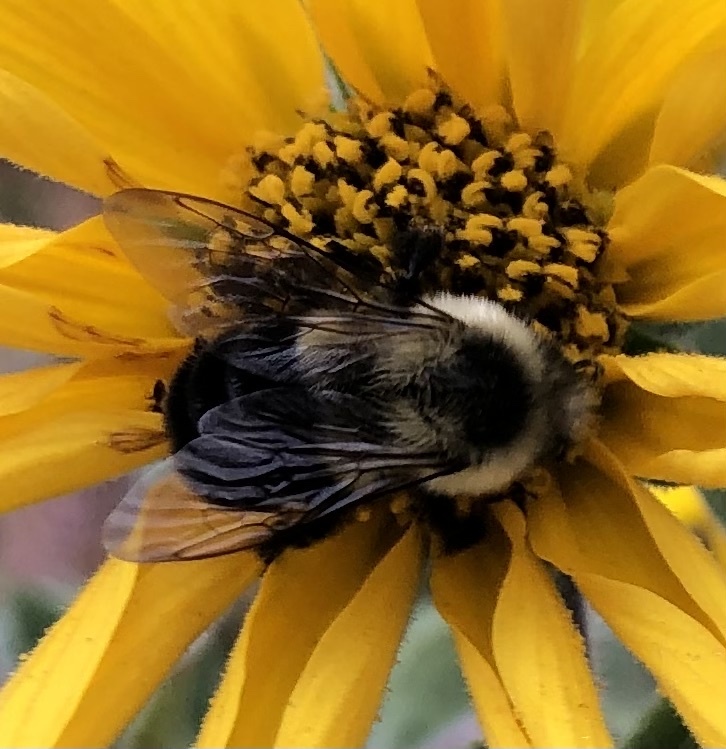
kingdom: Animalia
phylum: Arthropoda
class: Insecta
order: Hymenoptera
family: Apidae
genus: Bombus
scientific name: Bombus impatiens
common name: Common eastern bumble bee
